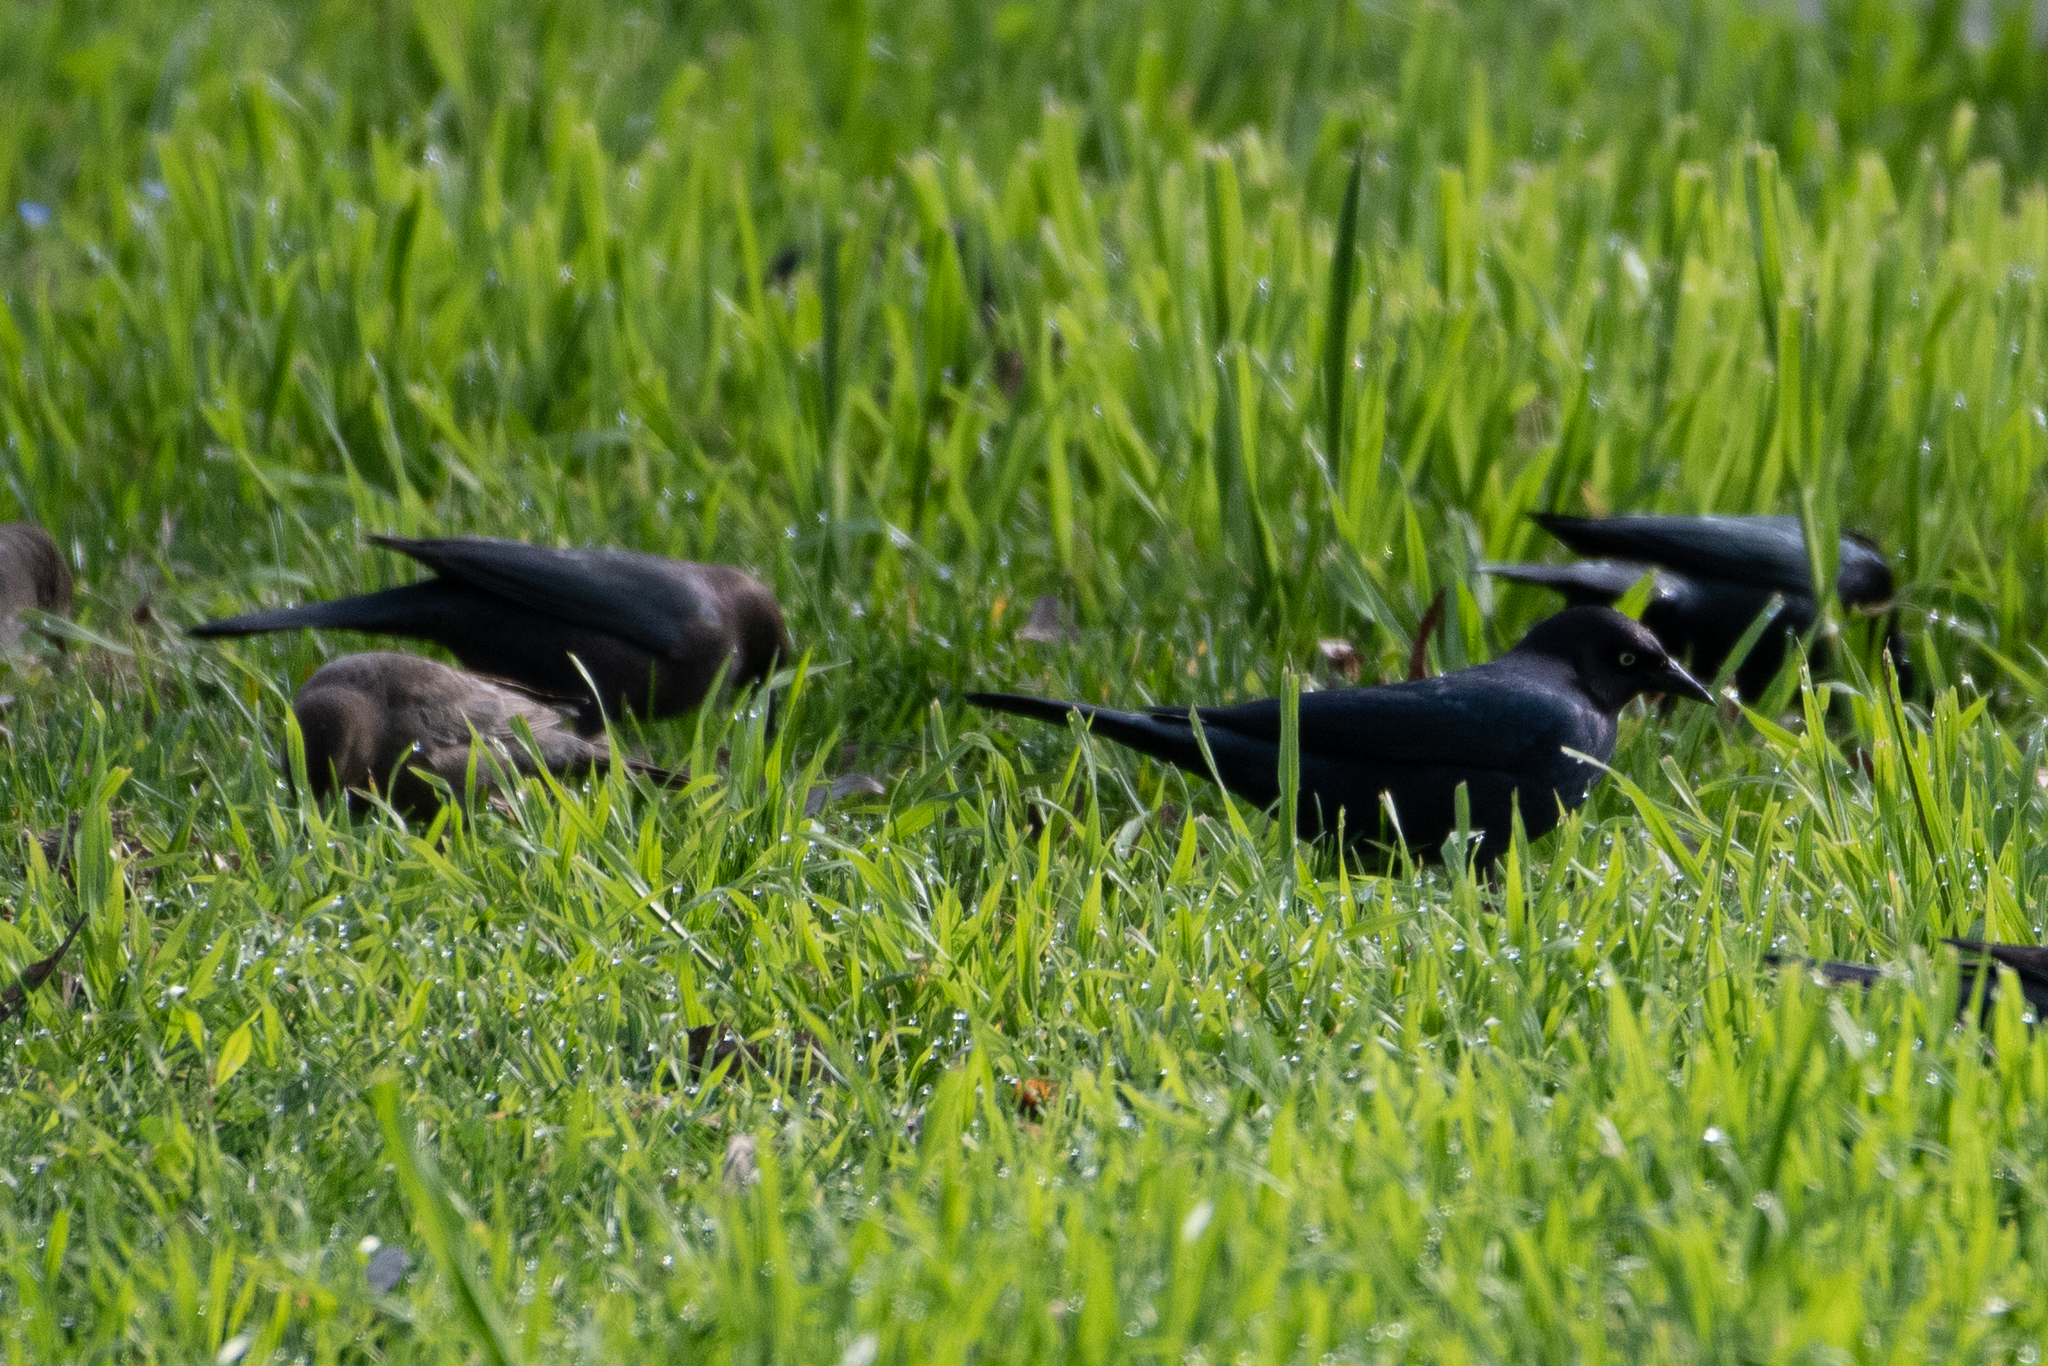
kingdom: Animalia
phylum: Chordata
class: Aves
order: Passeriformes
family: Icteridae
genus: Euphagus
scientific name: Euphagus cyanocephalus
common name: Brewer's blackbird
